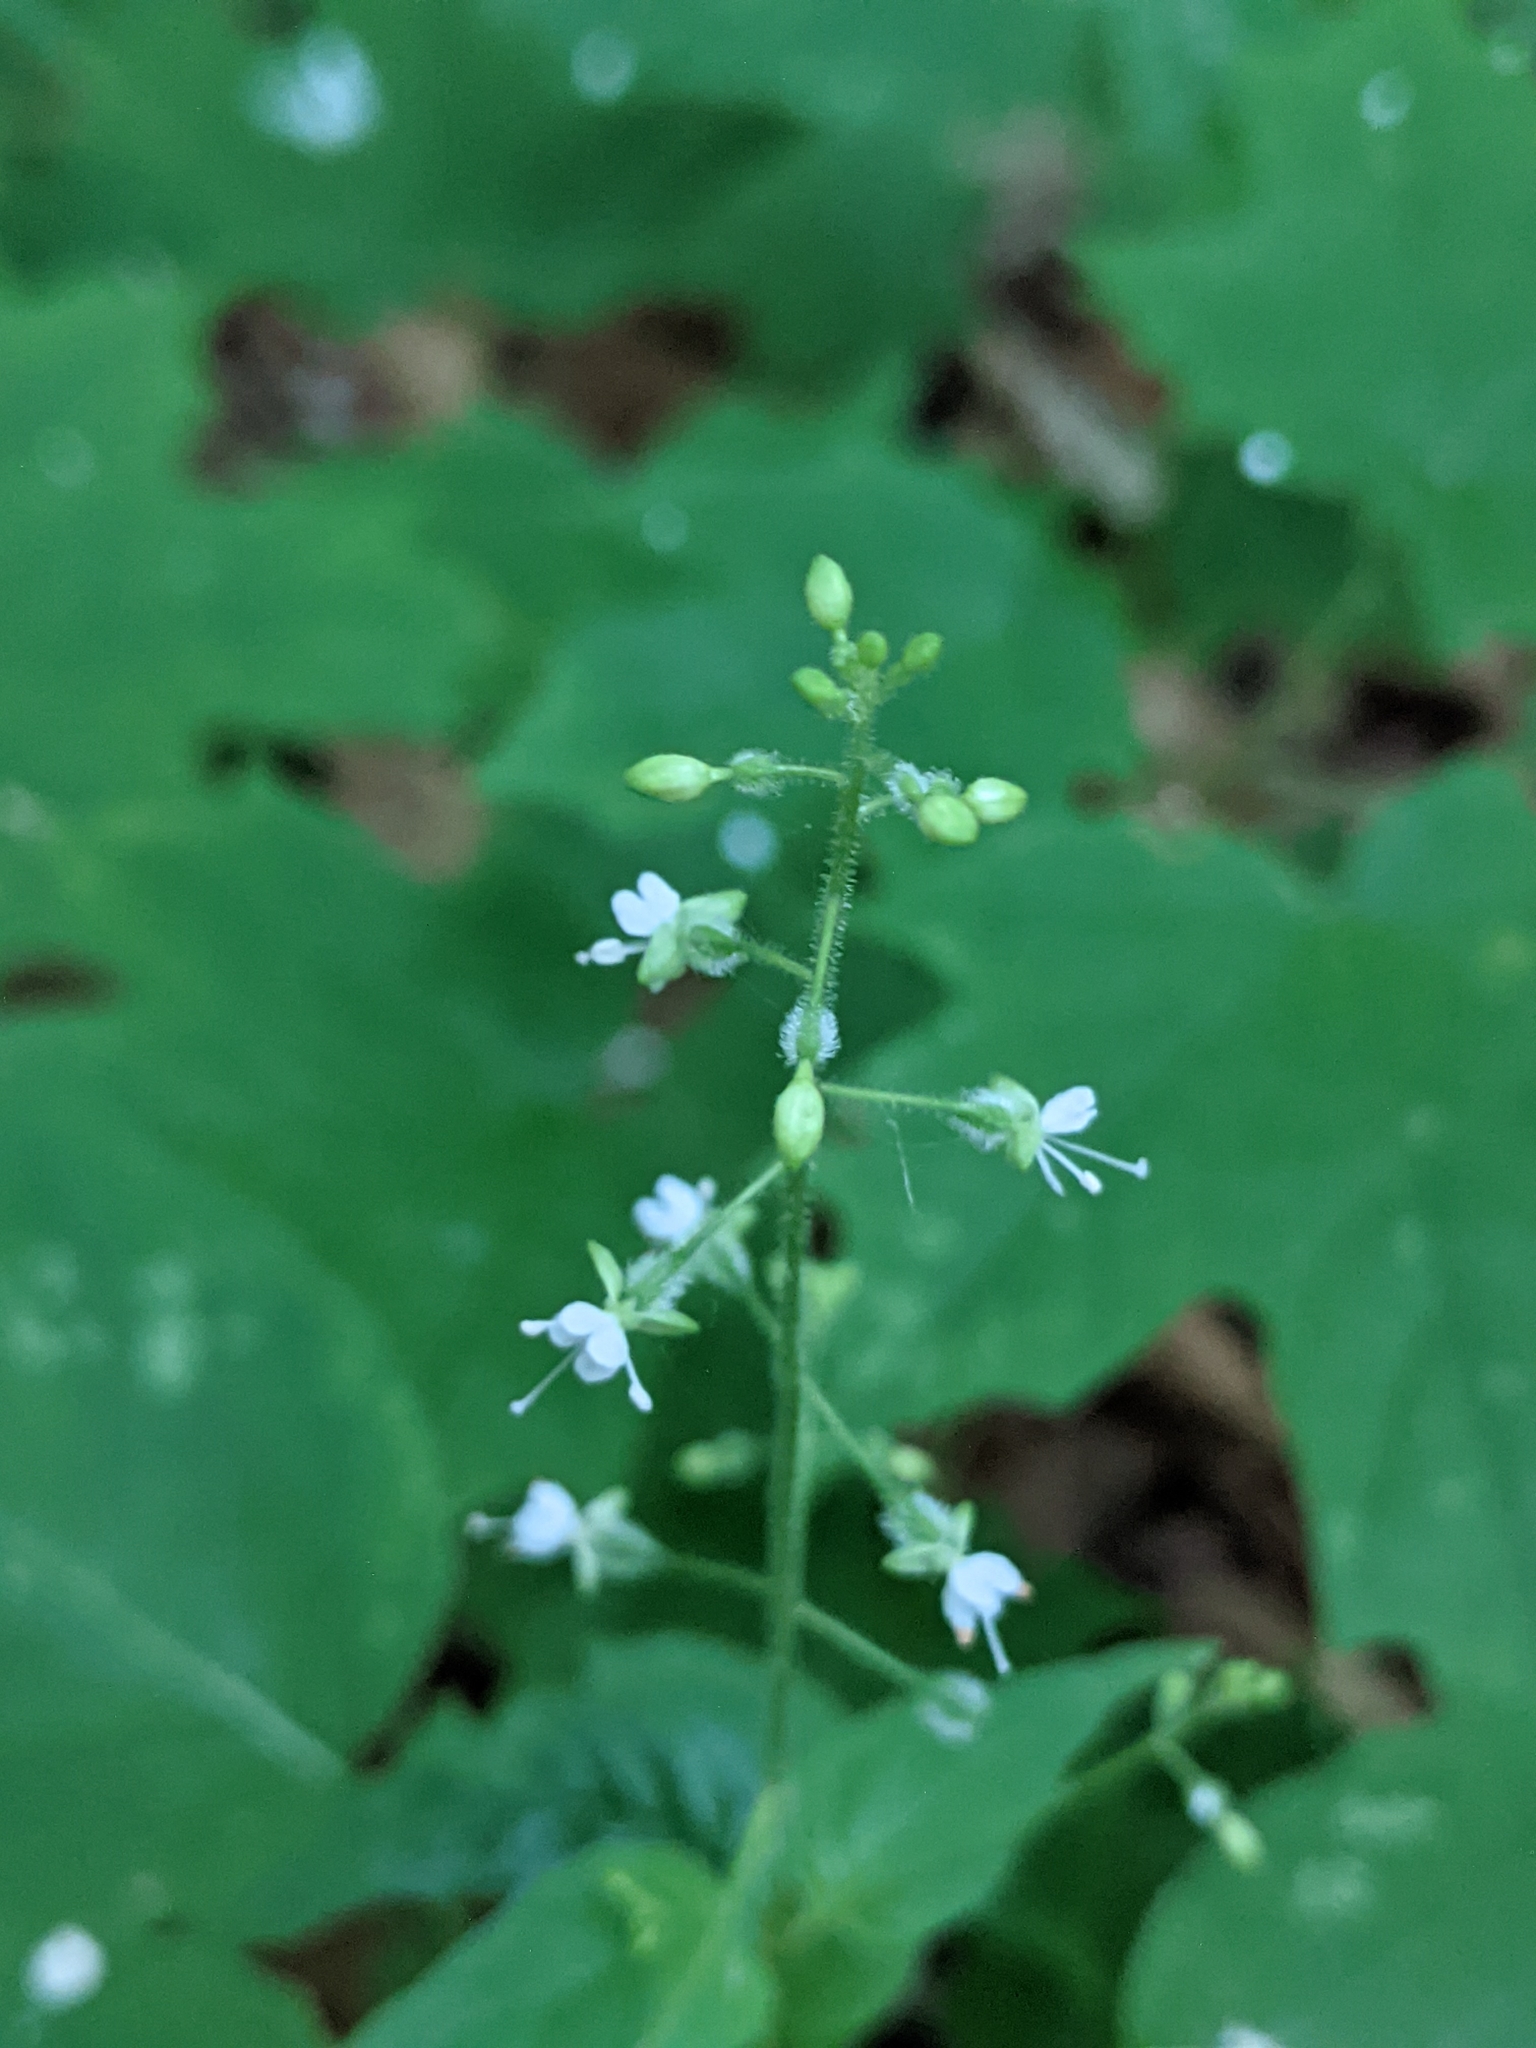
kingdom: Plantae
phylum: Tracheophyta
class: Magnoliopsida
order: Myrtales
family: Onagraceae
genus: Circaea
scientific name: Circaea canadensis
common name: Broad-leaved enchanter's nightshade
